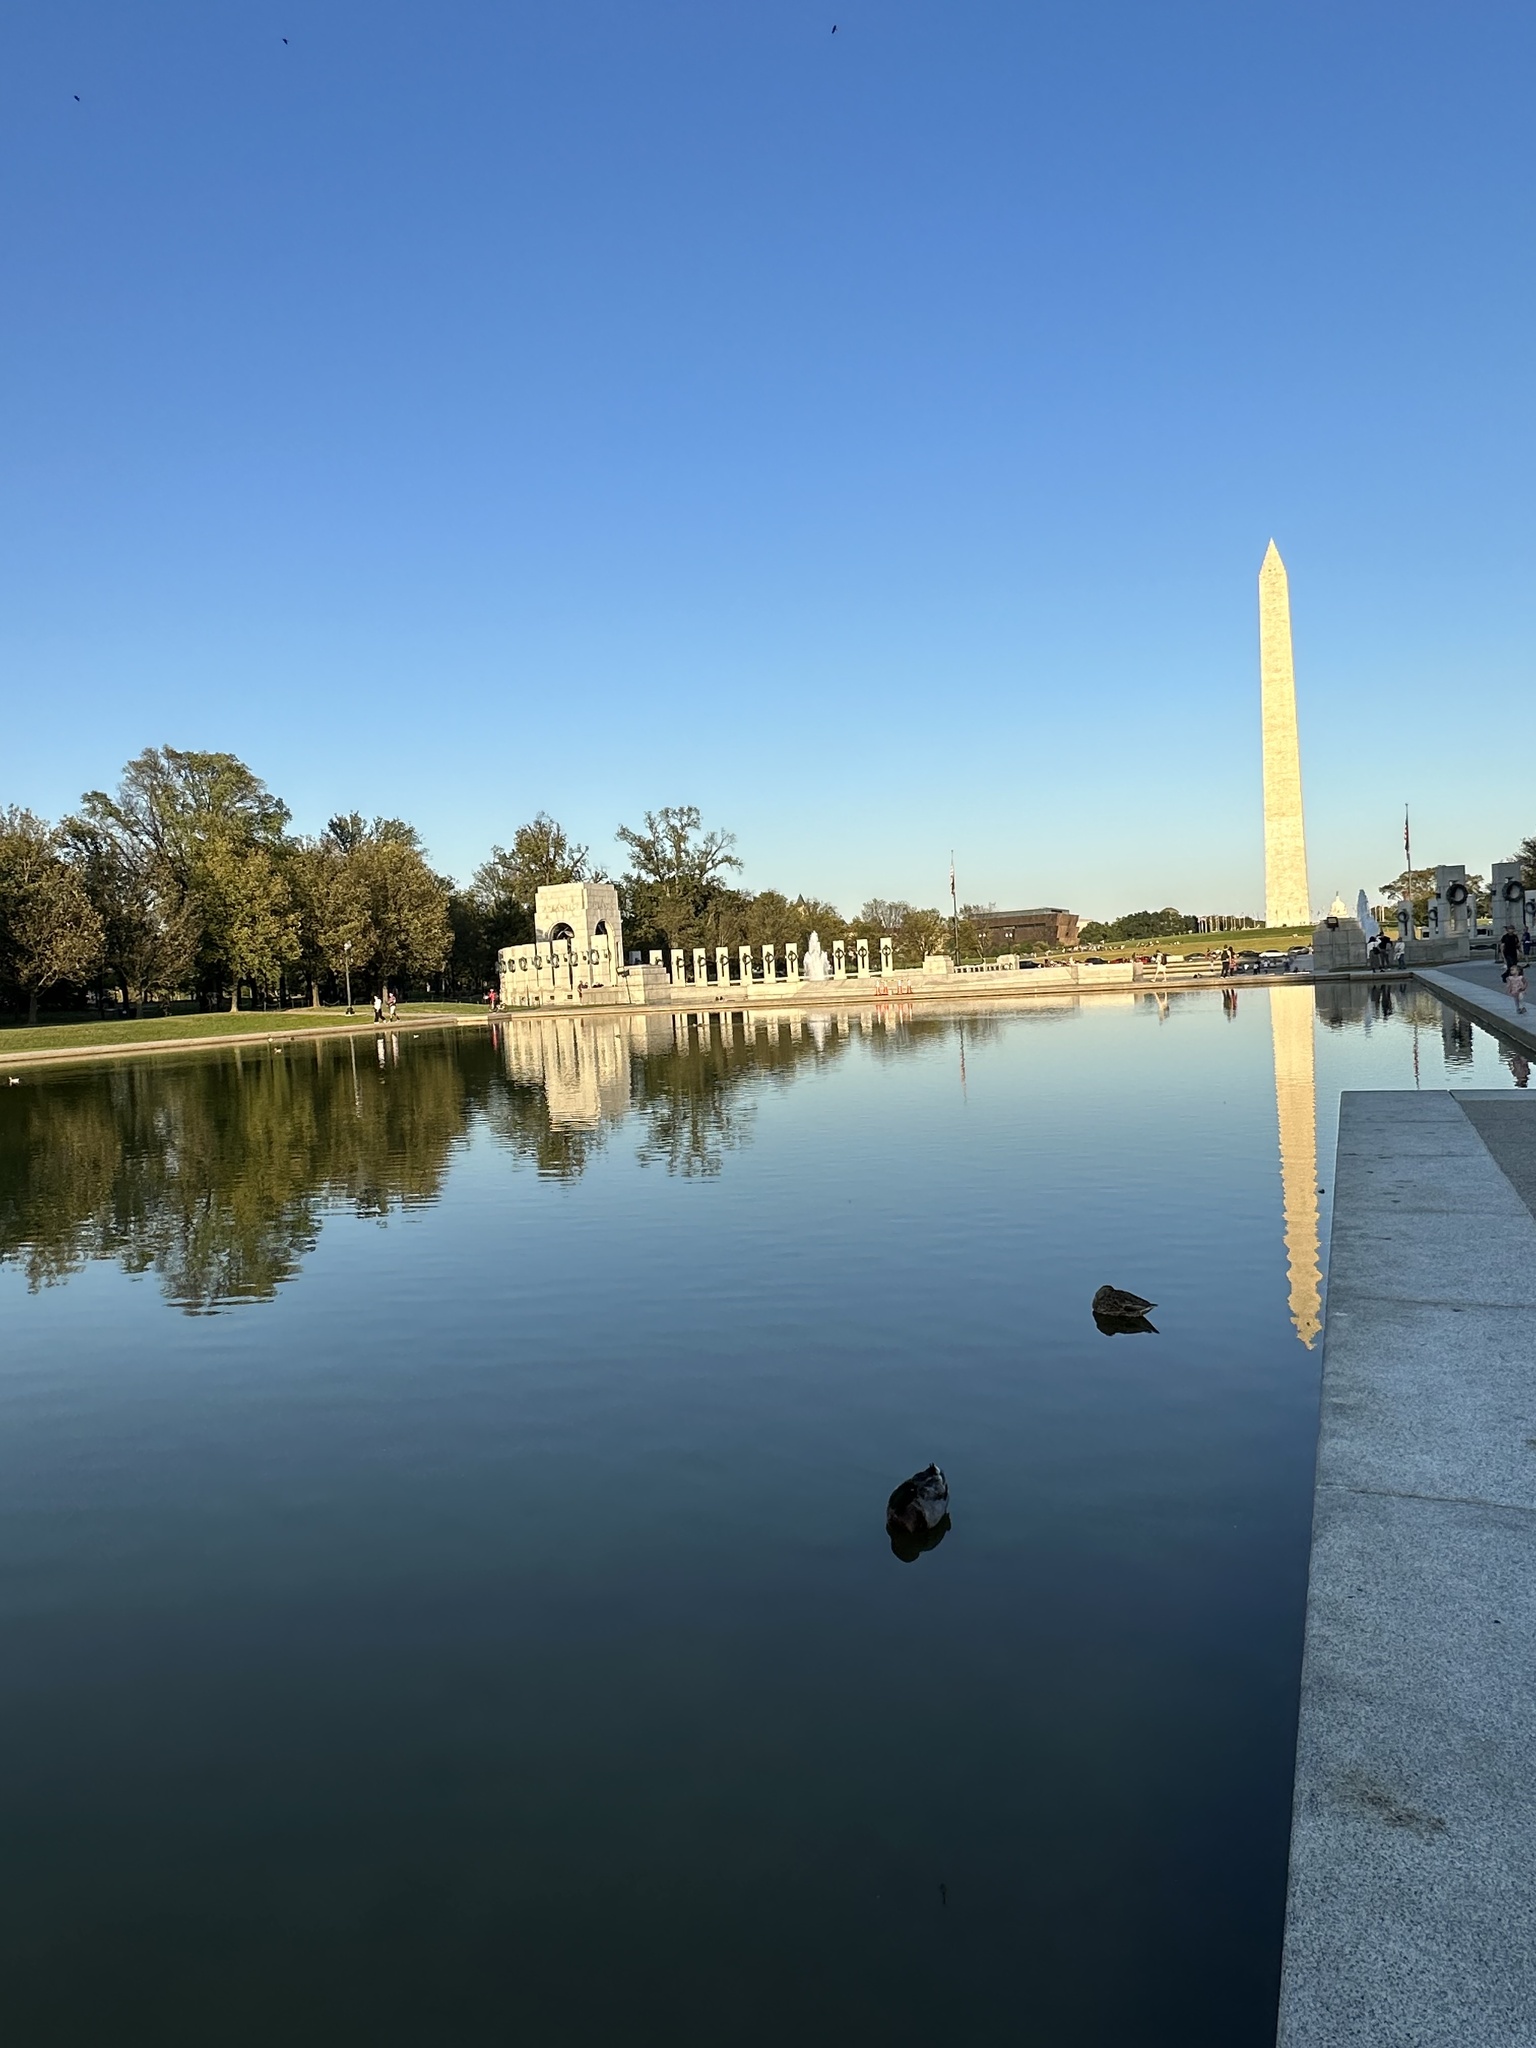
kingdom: Animalia
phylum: Chordata
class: Aves
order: Anseriformes
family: Anatidae
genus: Anas
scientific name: Anas platyrhynchos
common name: Mallard
